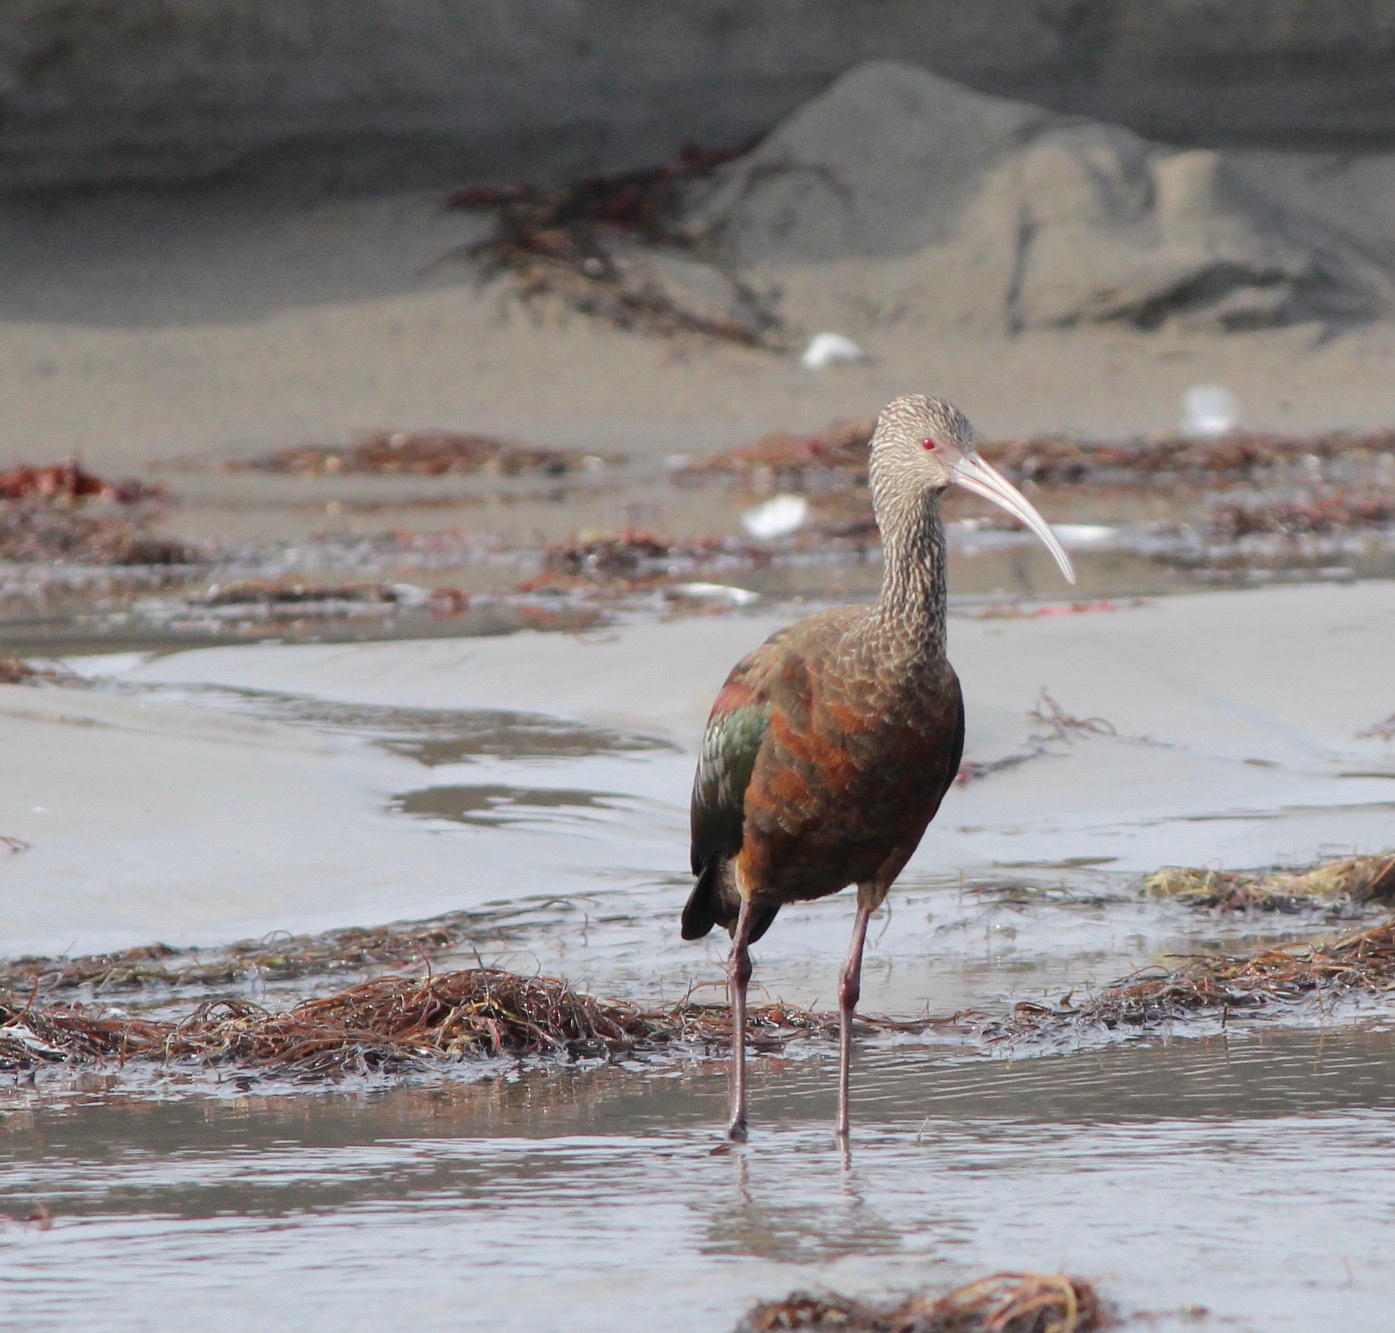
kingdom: Animalia
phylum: Chordata
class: Aves
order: Pelecaniformes
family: Threskiornithidae
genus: Plegadis
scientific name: Plegadis chihi
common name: White-faced ibis
